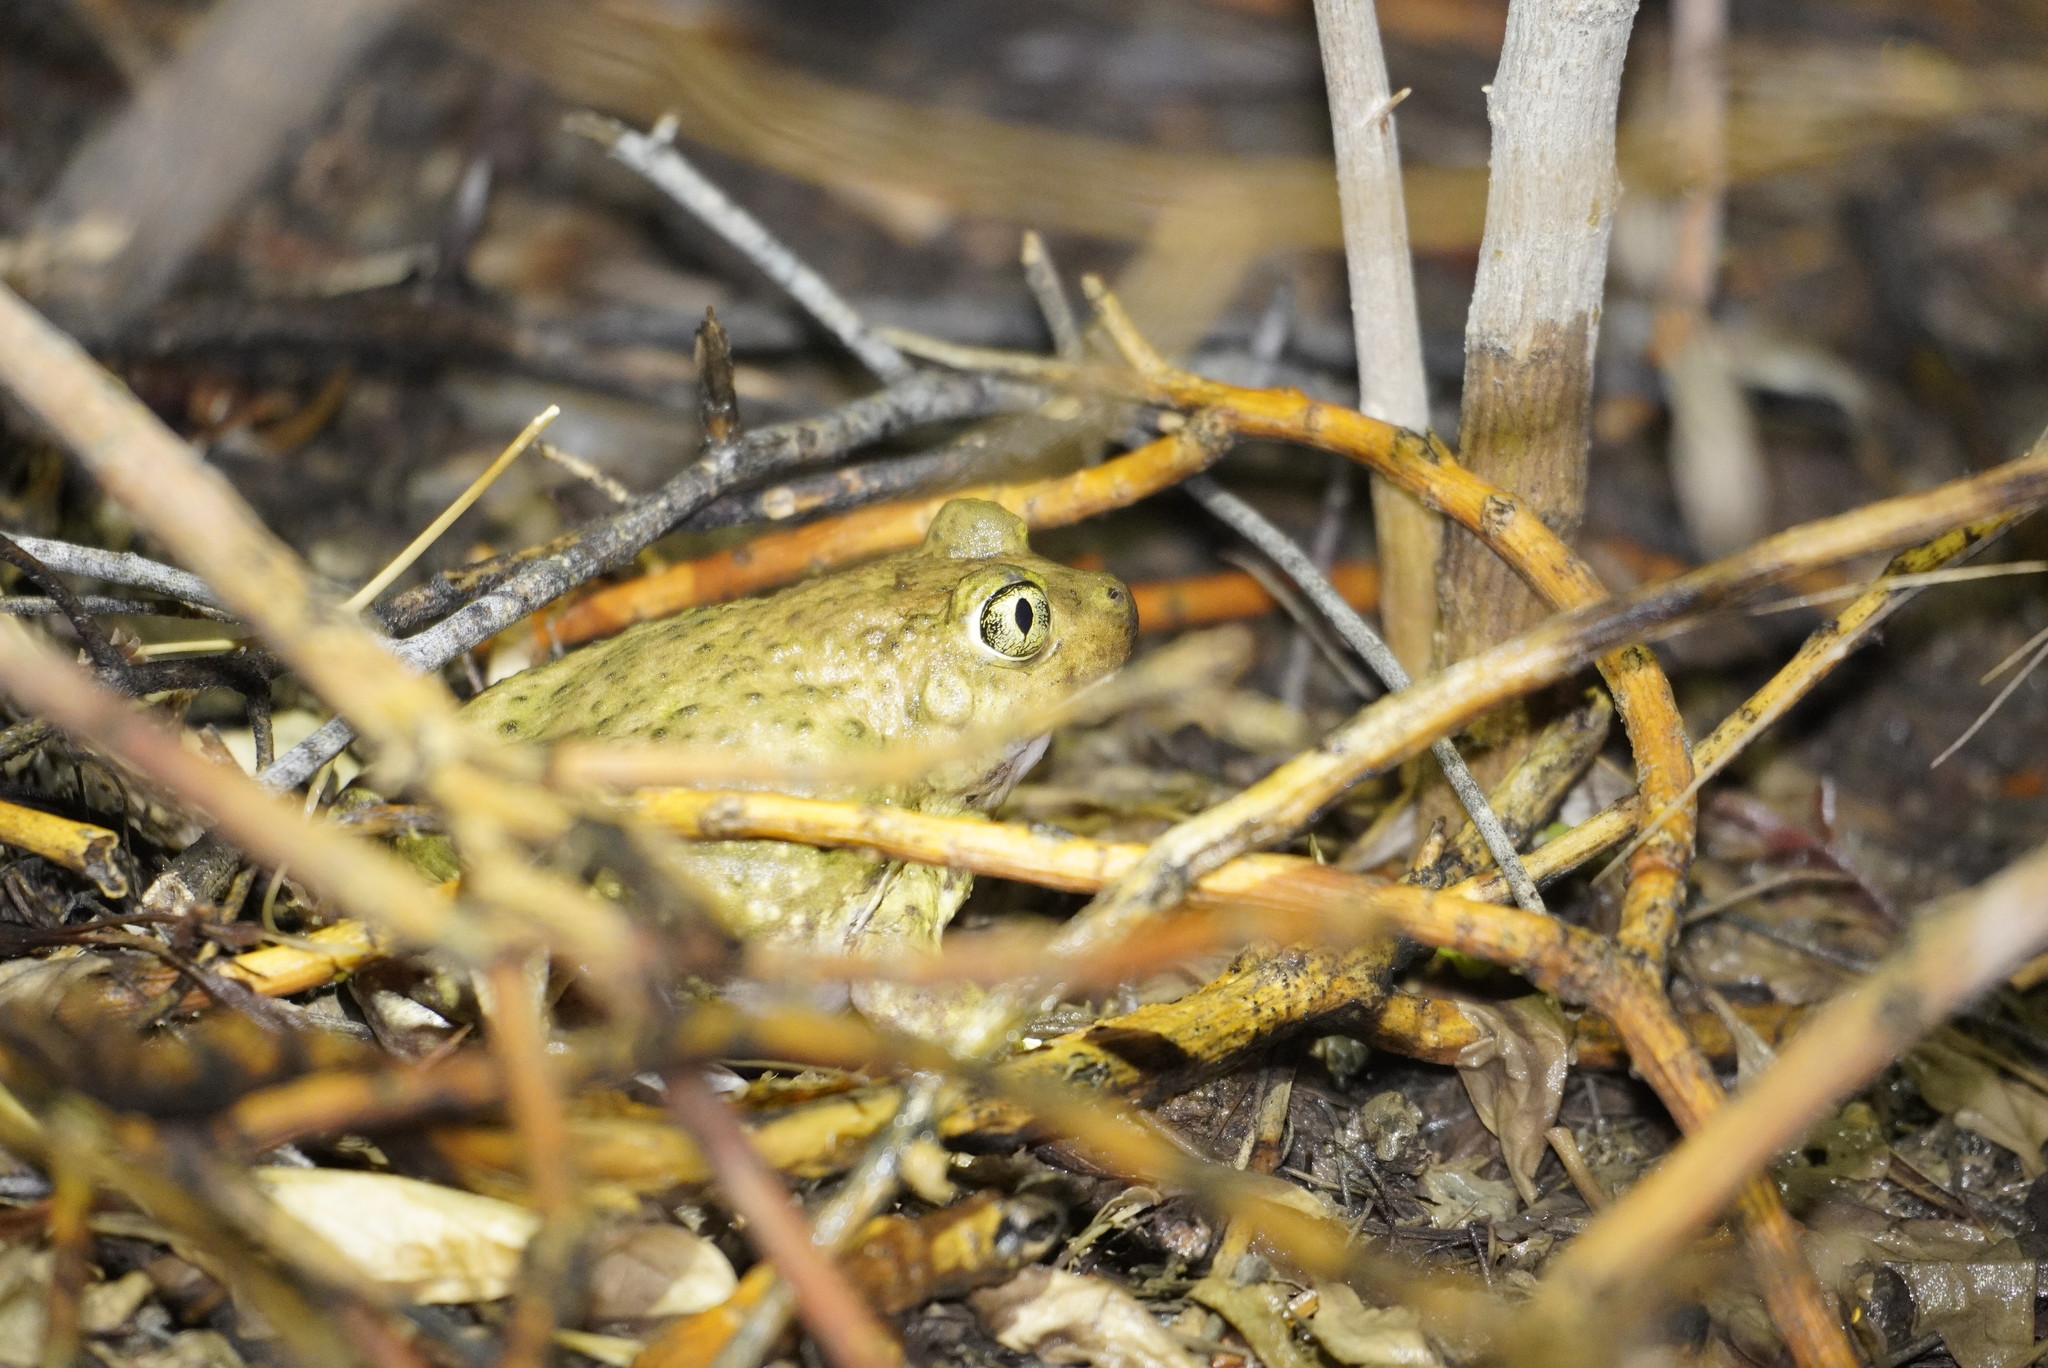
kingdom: Animalia
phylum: Chordata
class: Amphibia
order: Anura
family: Scaphiopodidae
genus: Scaphiopus
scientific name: Scaphiopus couchii
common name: Couch's spadefoot toad
